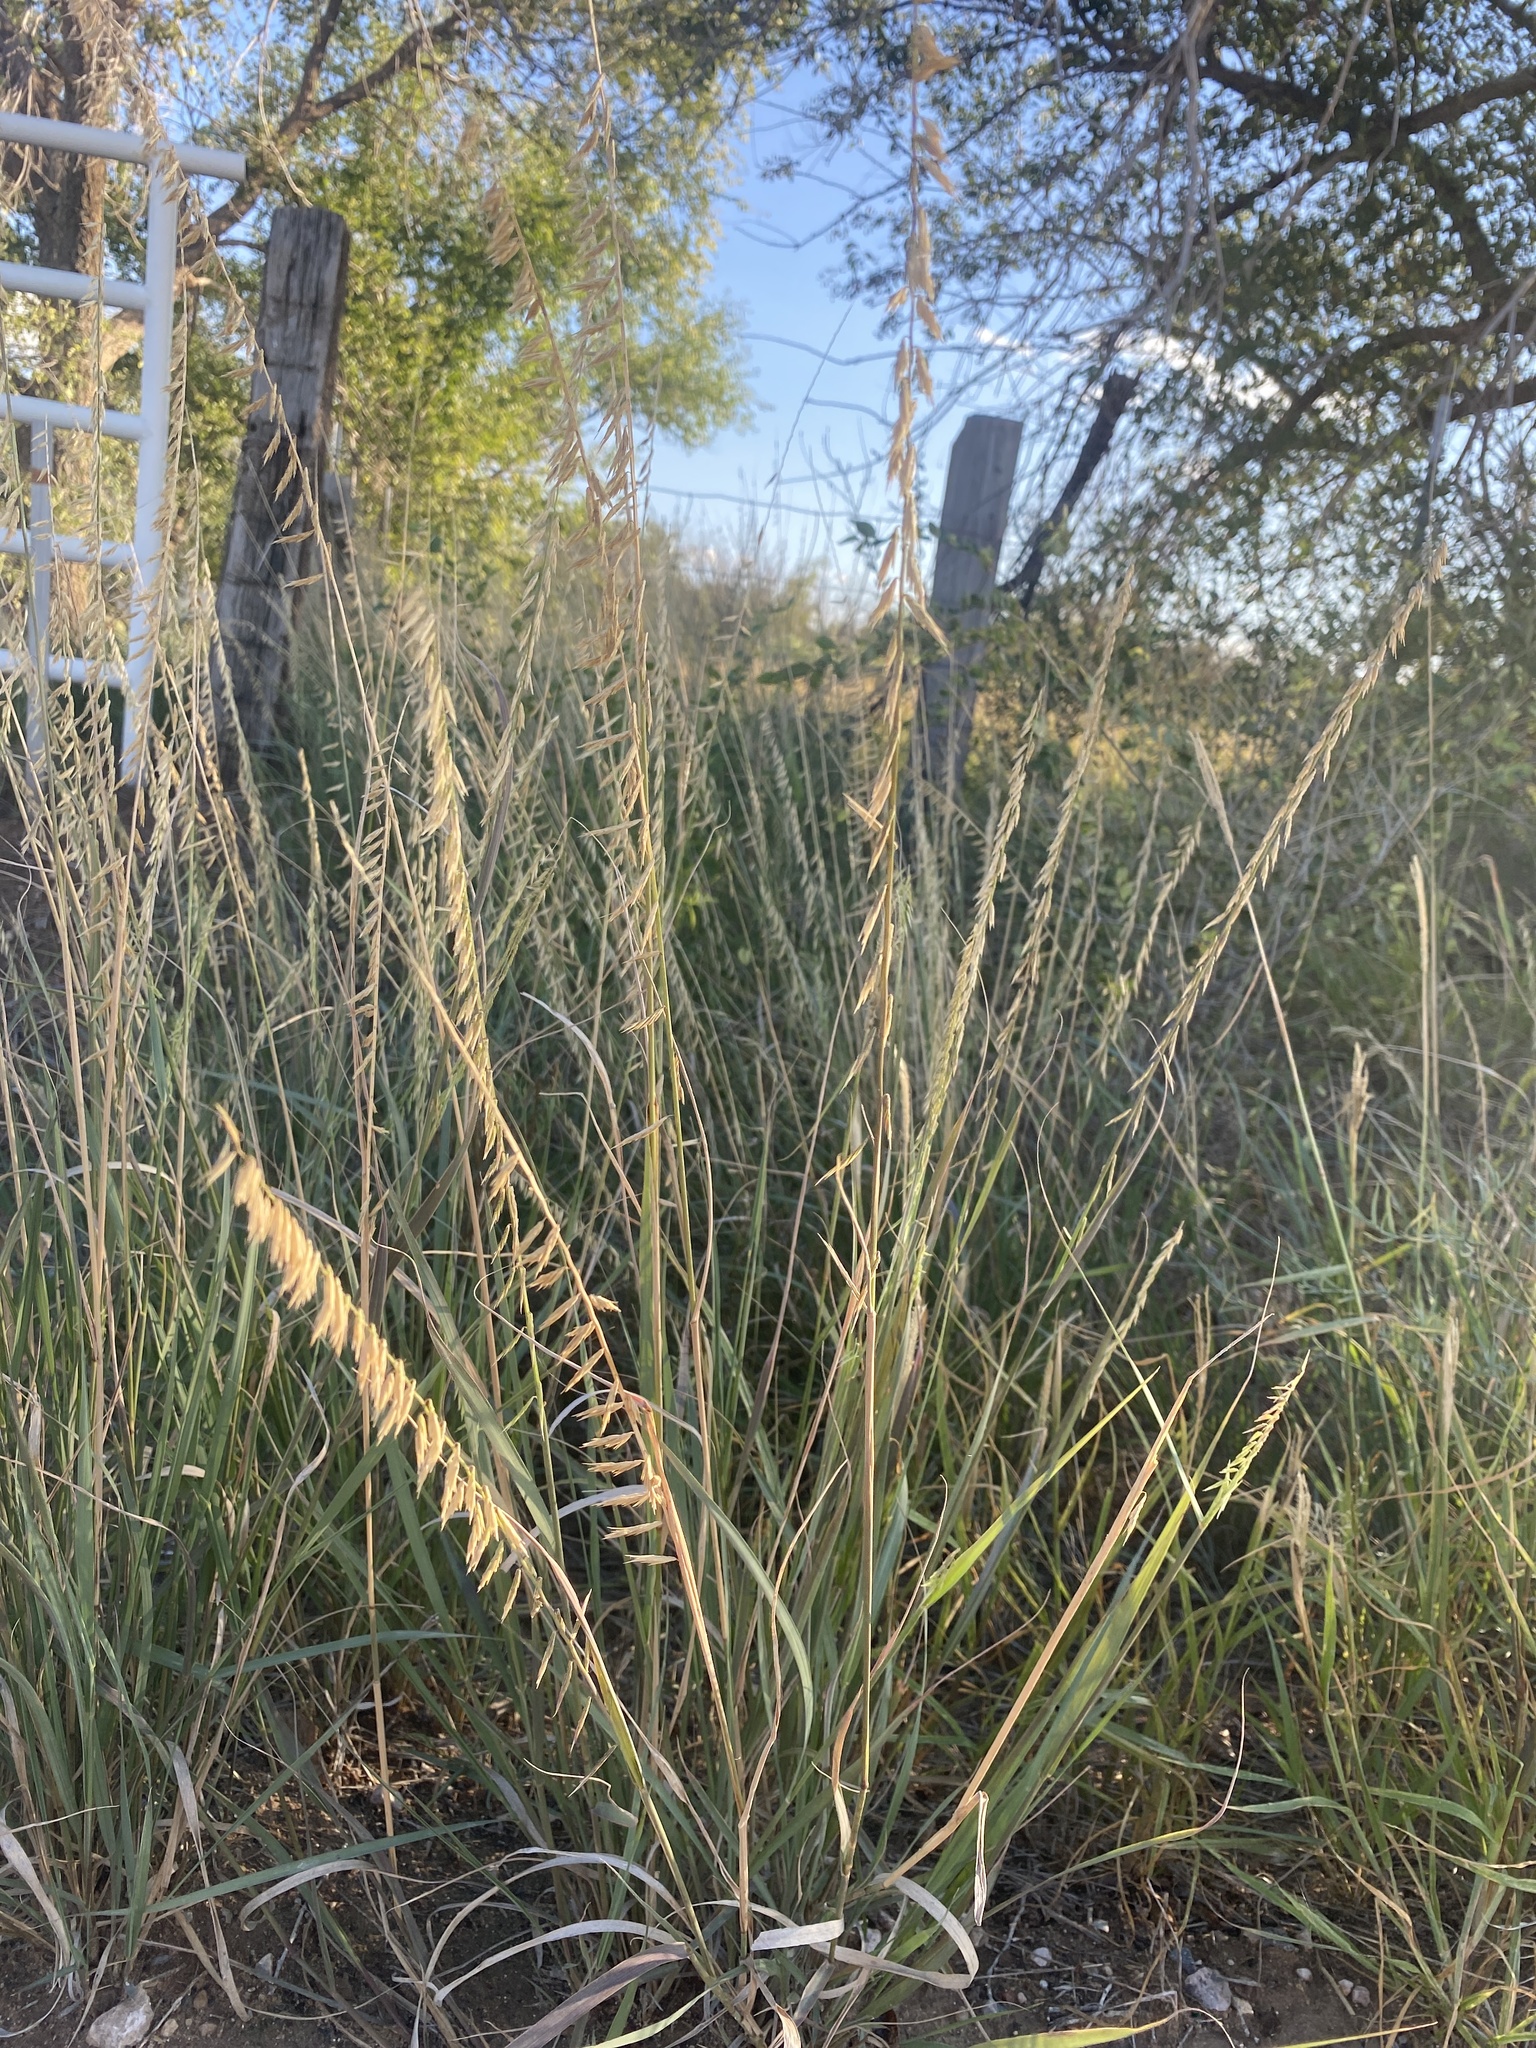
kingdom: Plantae
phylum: Tracheophyta
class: Liliopsida
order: Poales
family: Poaceae
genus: Bouteloua
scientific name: Bouteloua curtipendula
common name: Side-oats grama
